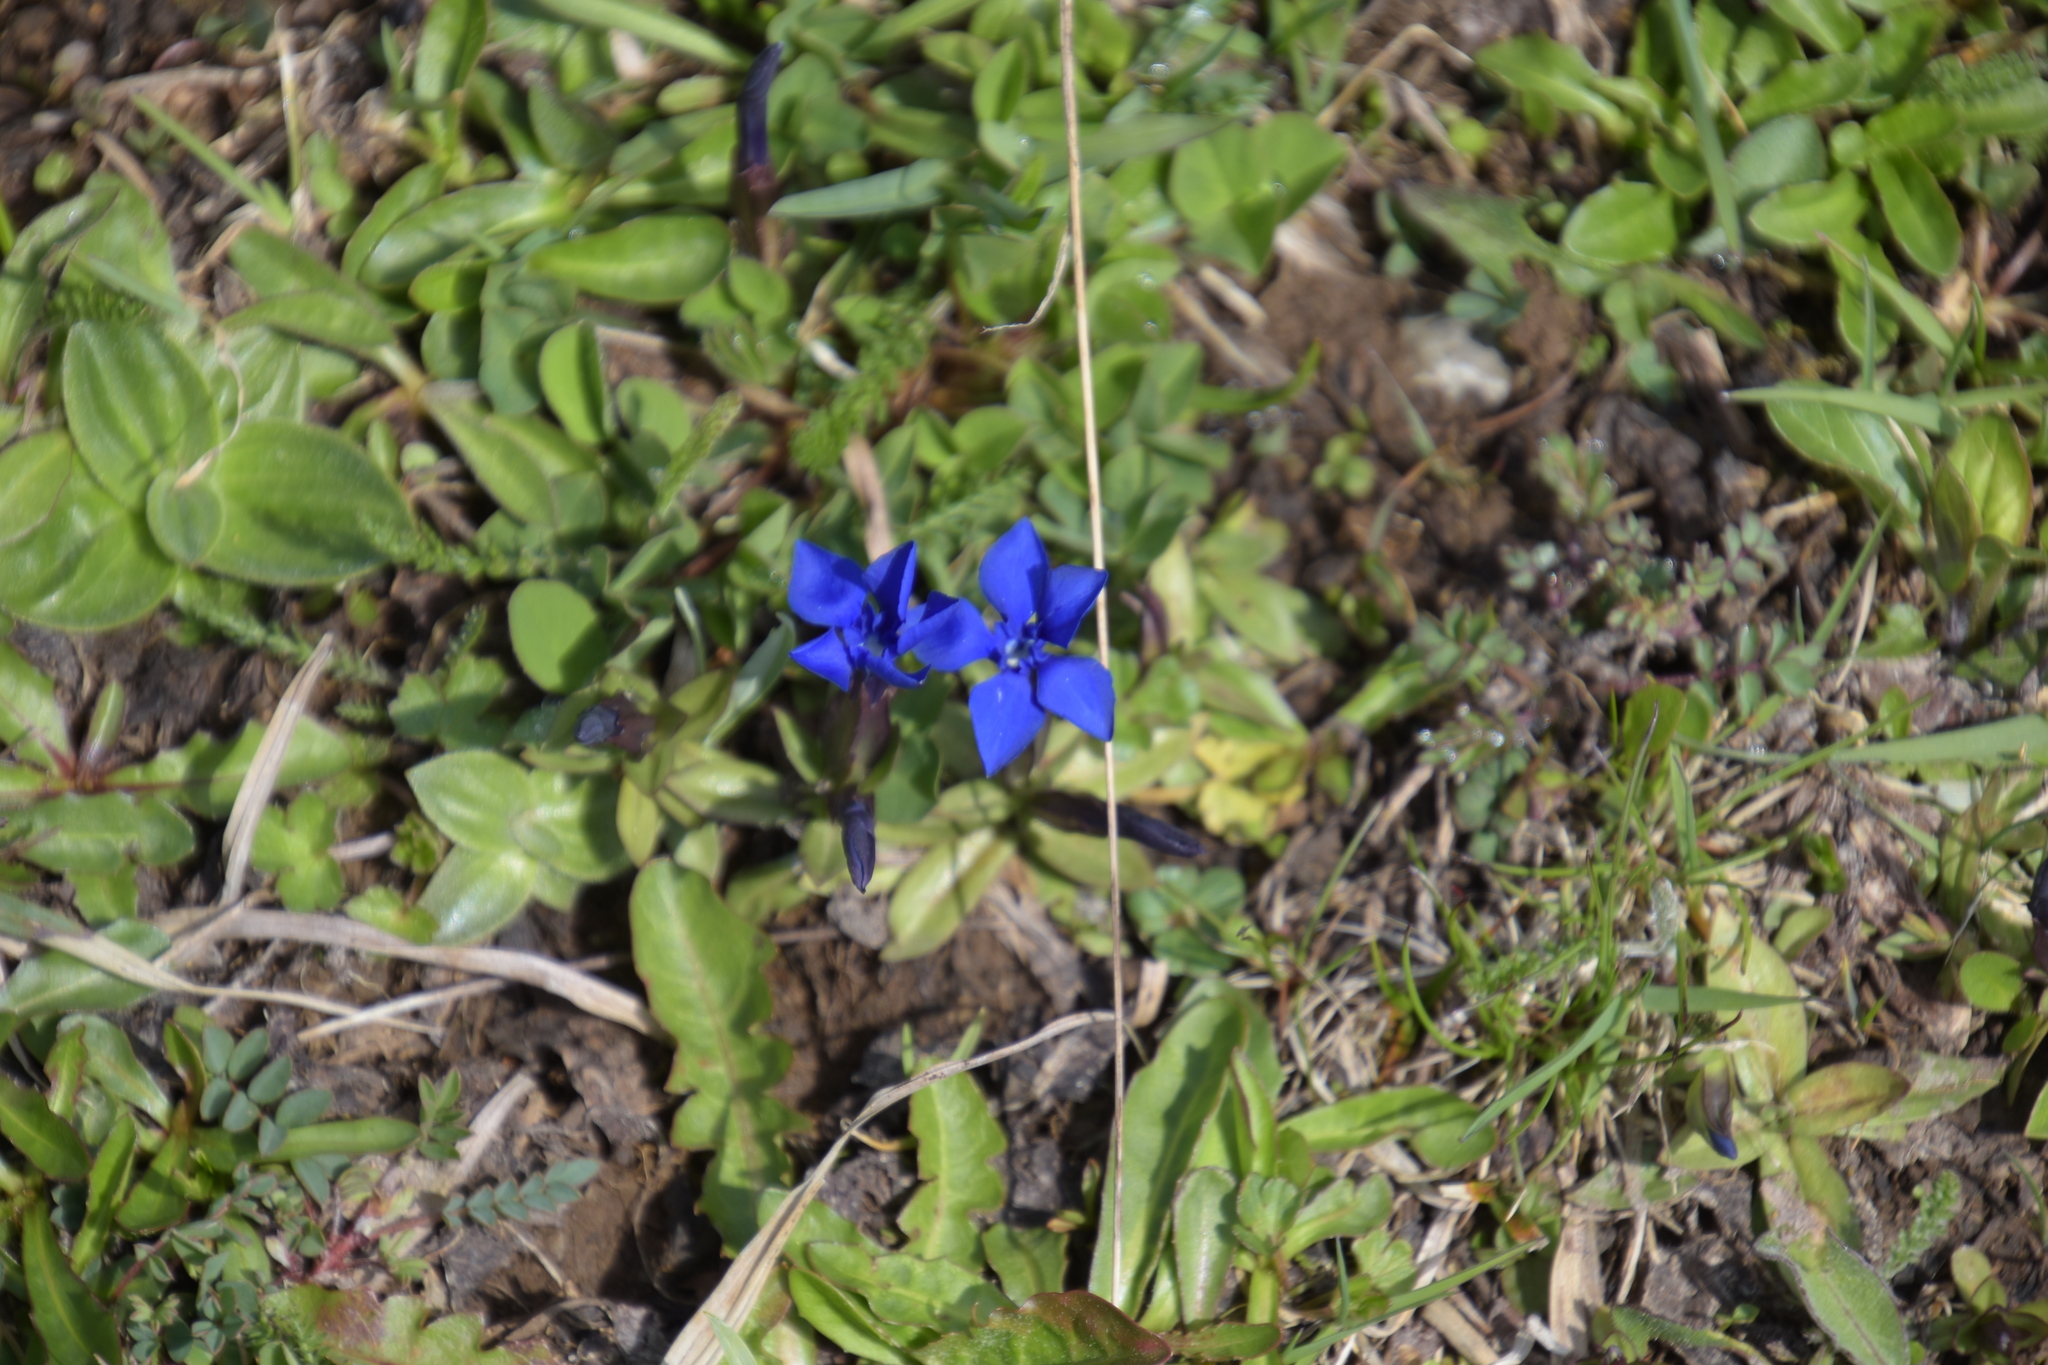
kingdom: Plantae
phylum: Tracheophyta
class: Magnoliopsida
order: Gentianales
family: Gentianaceae
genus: Gentiana
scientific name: Gentiana verna
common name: Spring gentian
